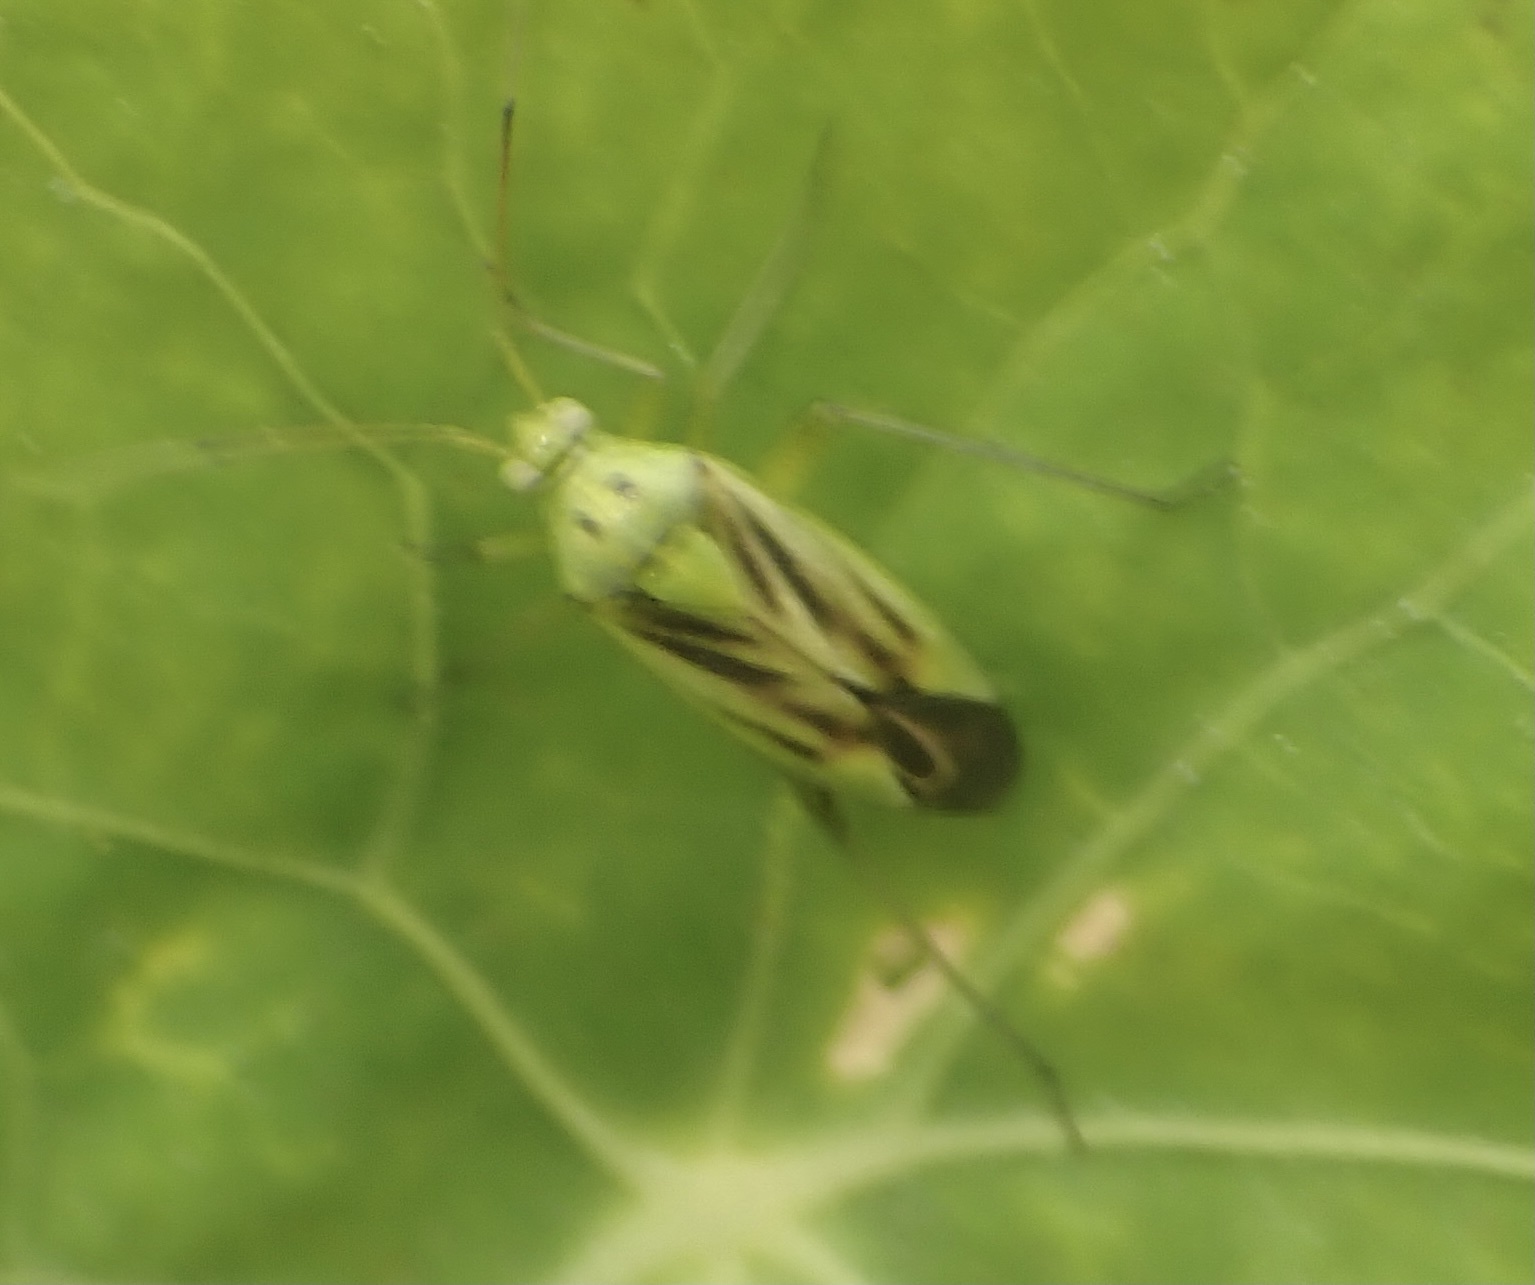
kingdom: Animalia
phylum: Arthropoda
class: Insecta
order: Hemiptera
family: Miridae
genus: Closterotomus
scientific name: Closterotomus norvegicus
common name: Plant bug
